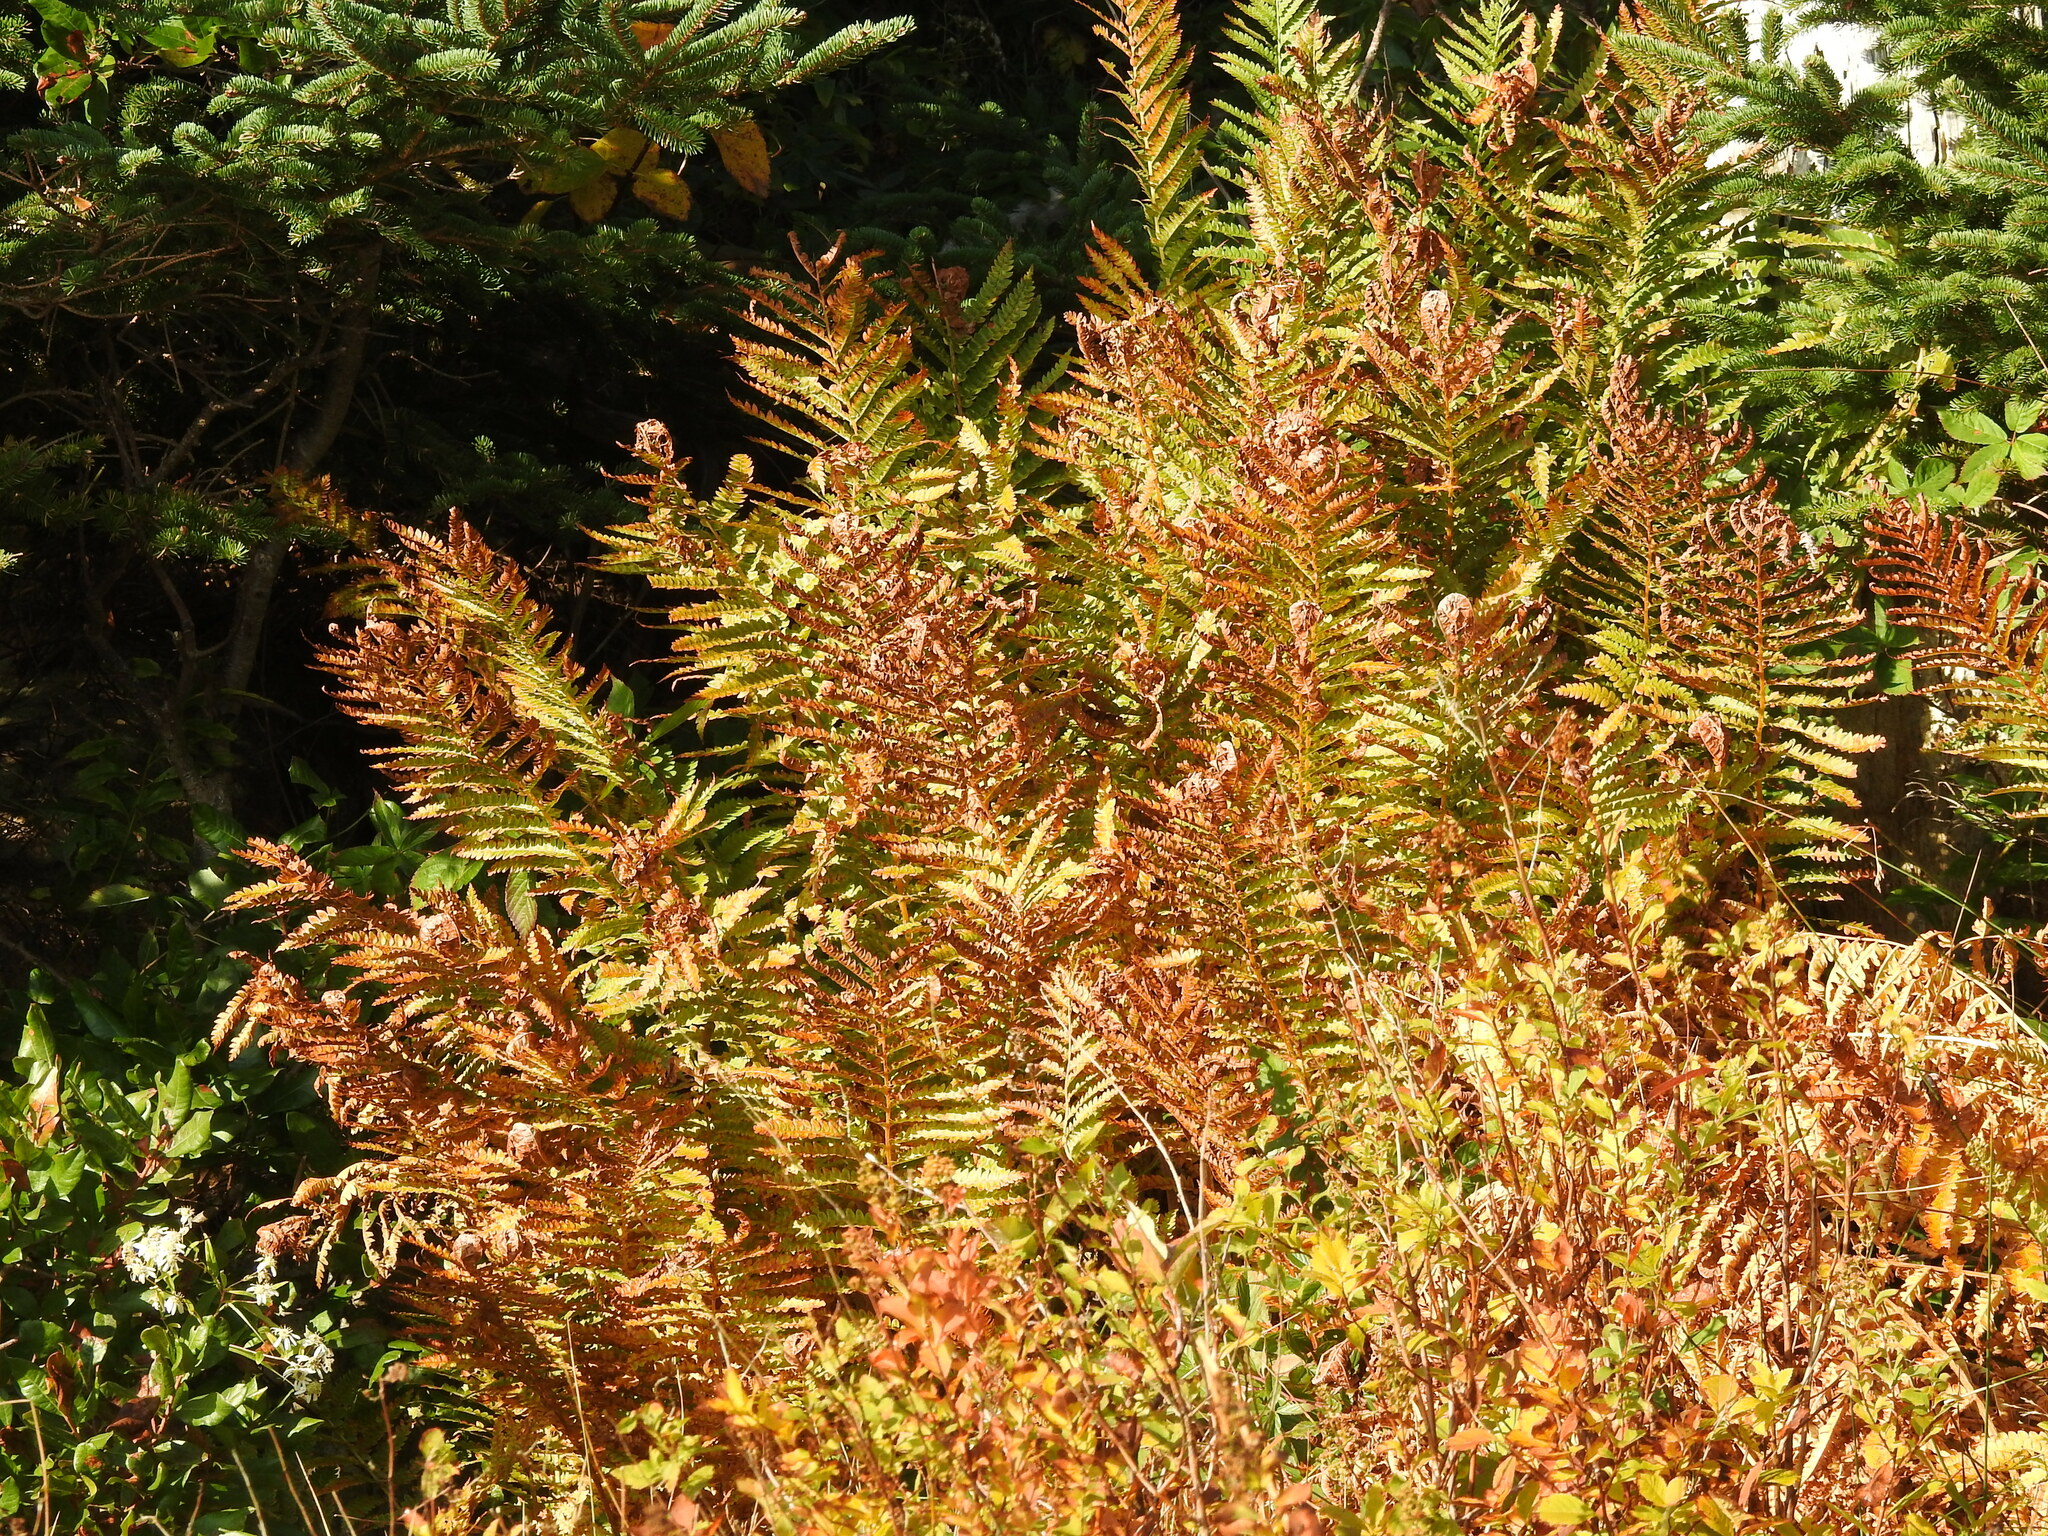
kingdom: Plantae
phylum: Tracheophyta
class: Polypodiopsida
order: Osmundales
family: Osmundaceae
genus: Osmundastrum
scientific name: Osmundastrum cinnamomeum
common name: Cinnamon fern
